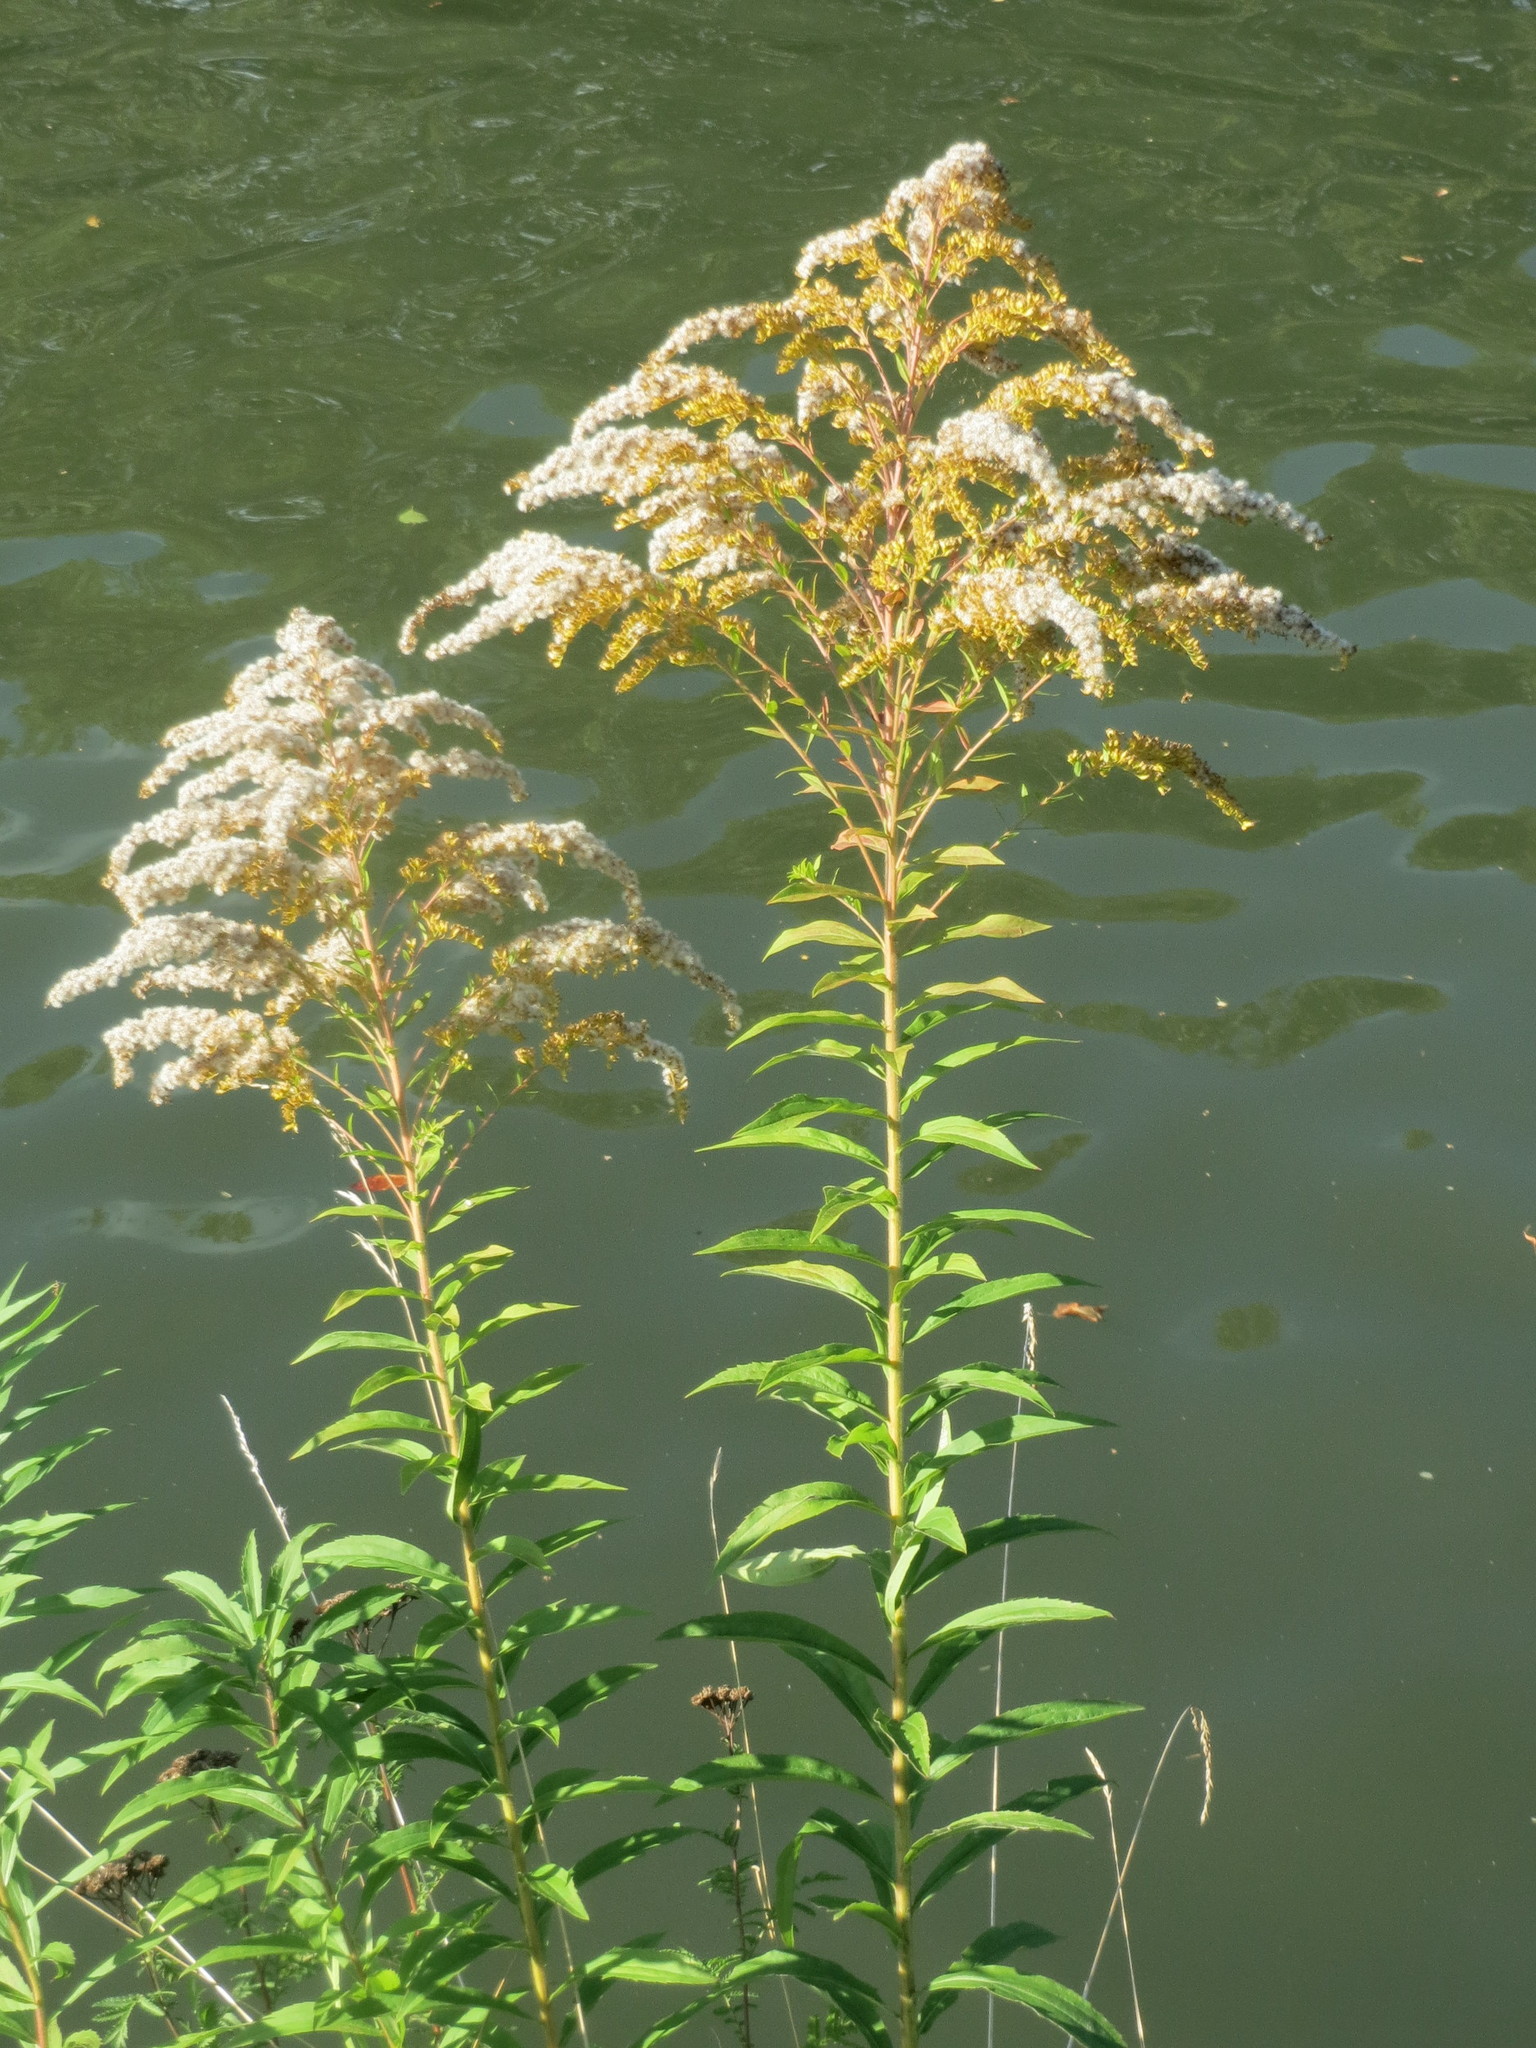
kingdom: Plantae
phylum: Tracheophyta
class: Magnoliopsida
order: Asterales
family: Asteraceae
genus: Solidago
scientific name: Solidago canadensis
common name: Canada goldenrod
